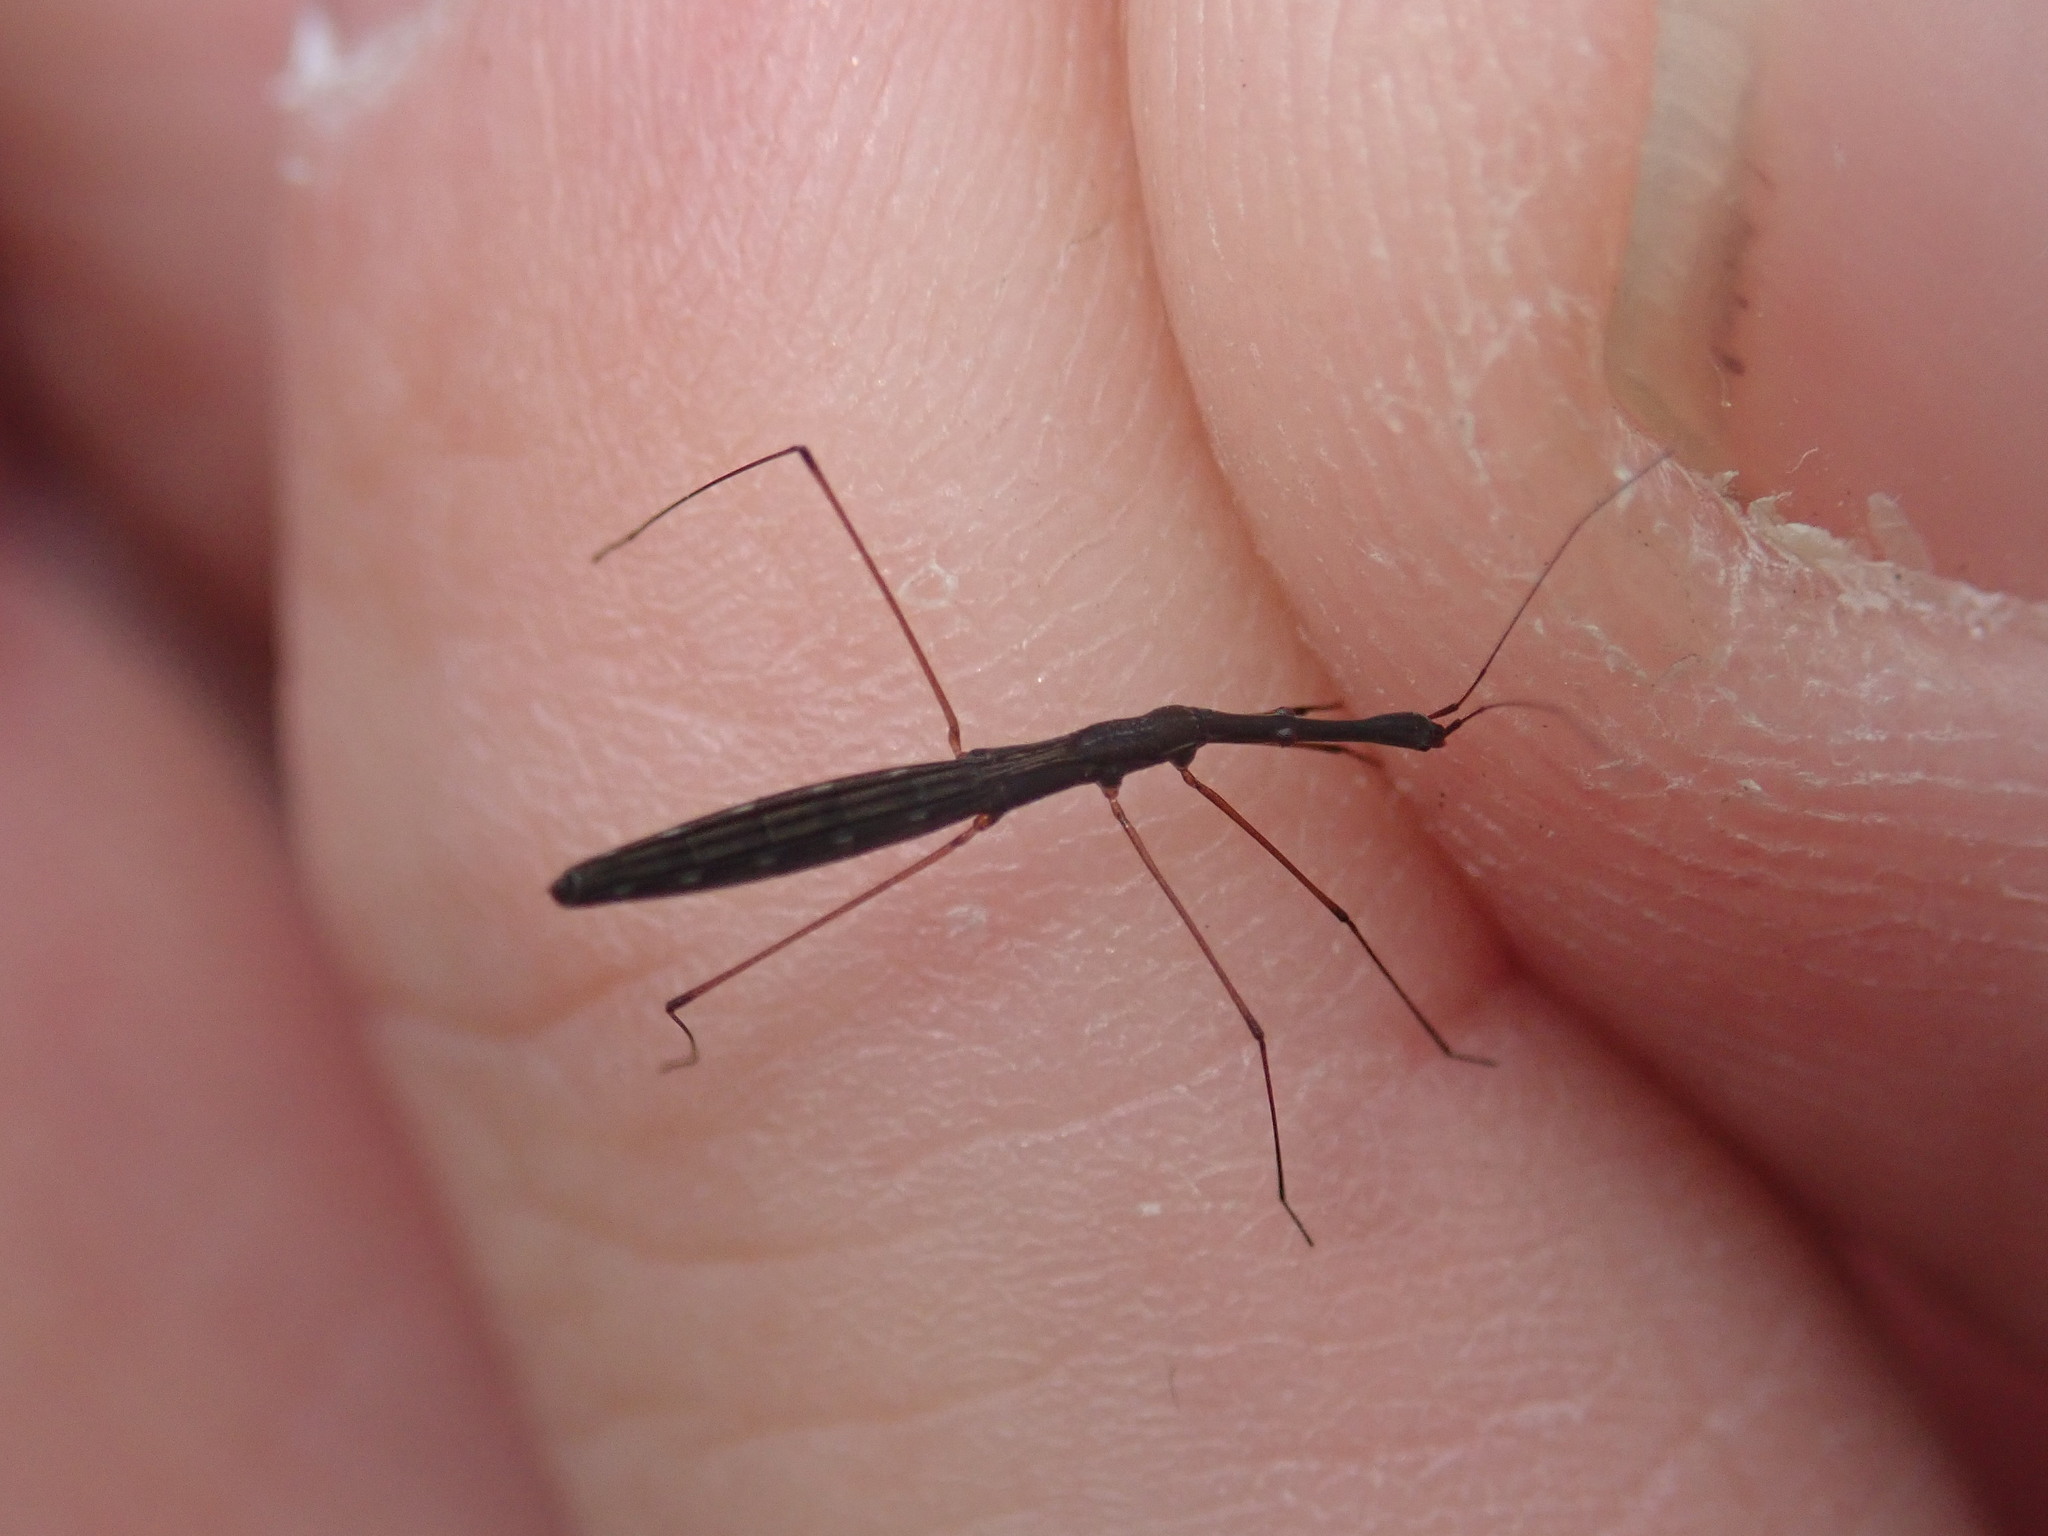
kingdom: Animalia
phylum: Arthropoda
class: Insecta
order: Hemiptera
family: Hydrometridae
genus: Hydrometra
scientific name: Hydrometra stagnorum
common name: Water measurer
